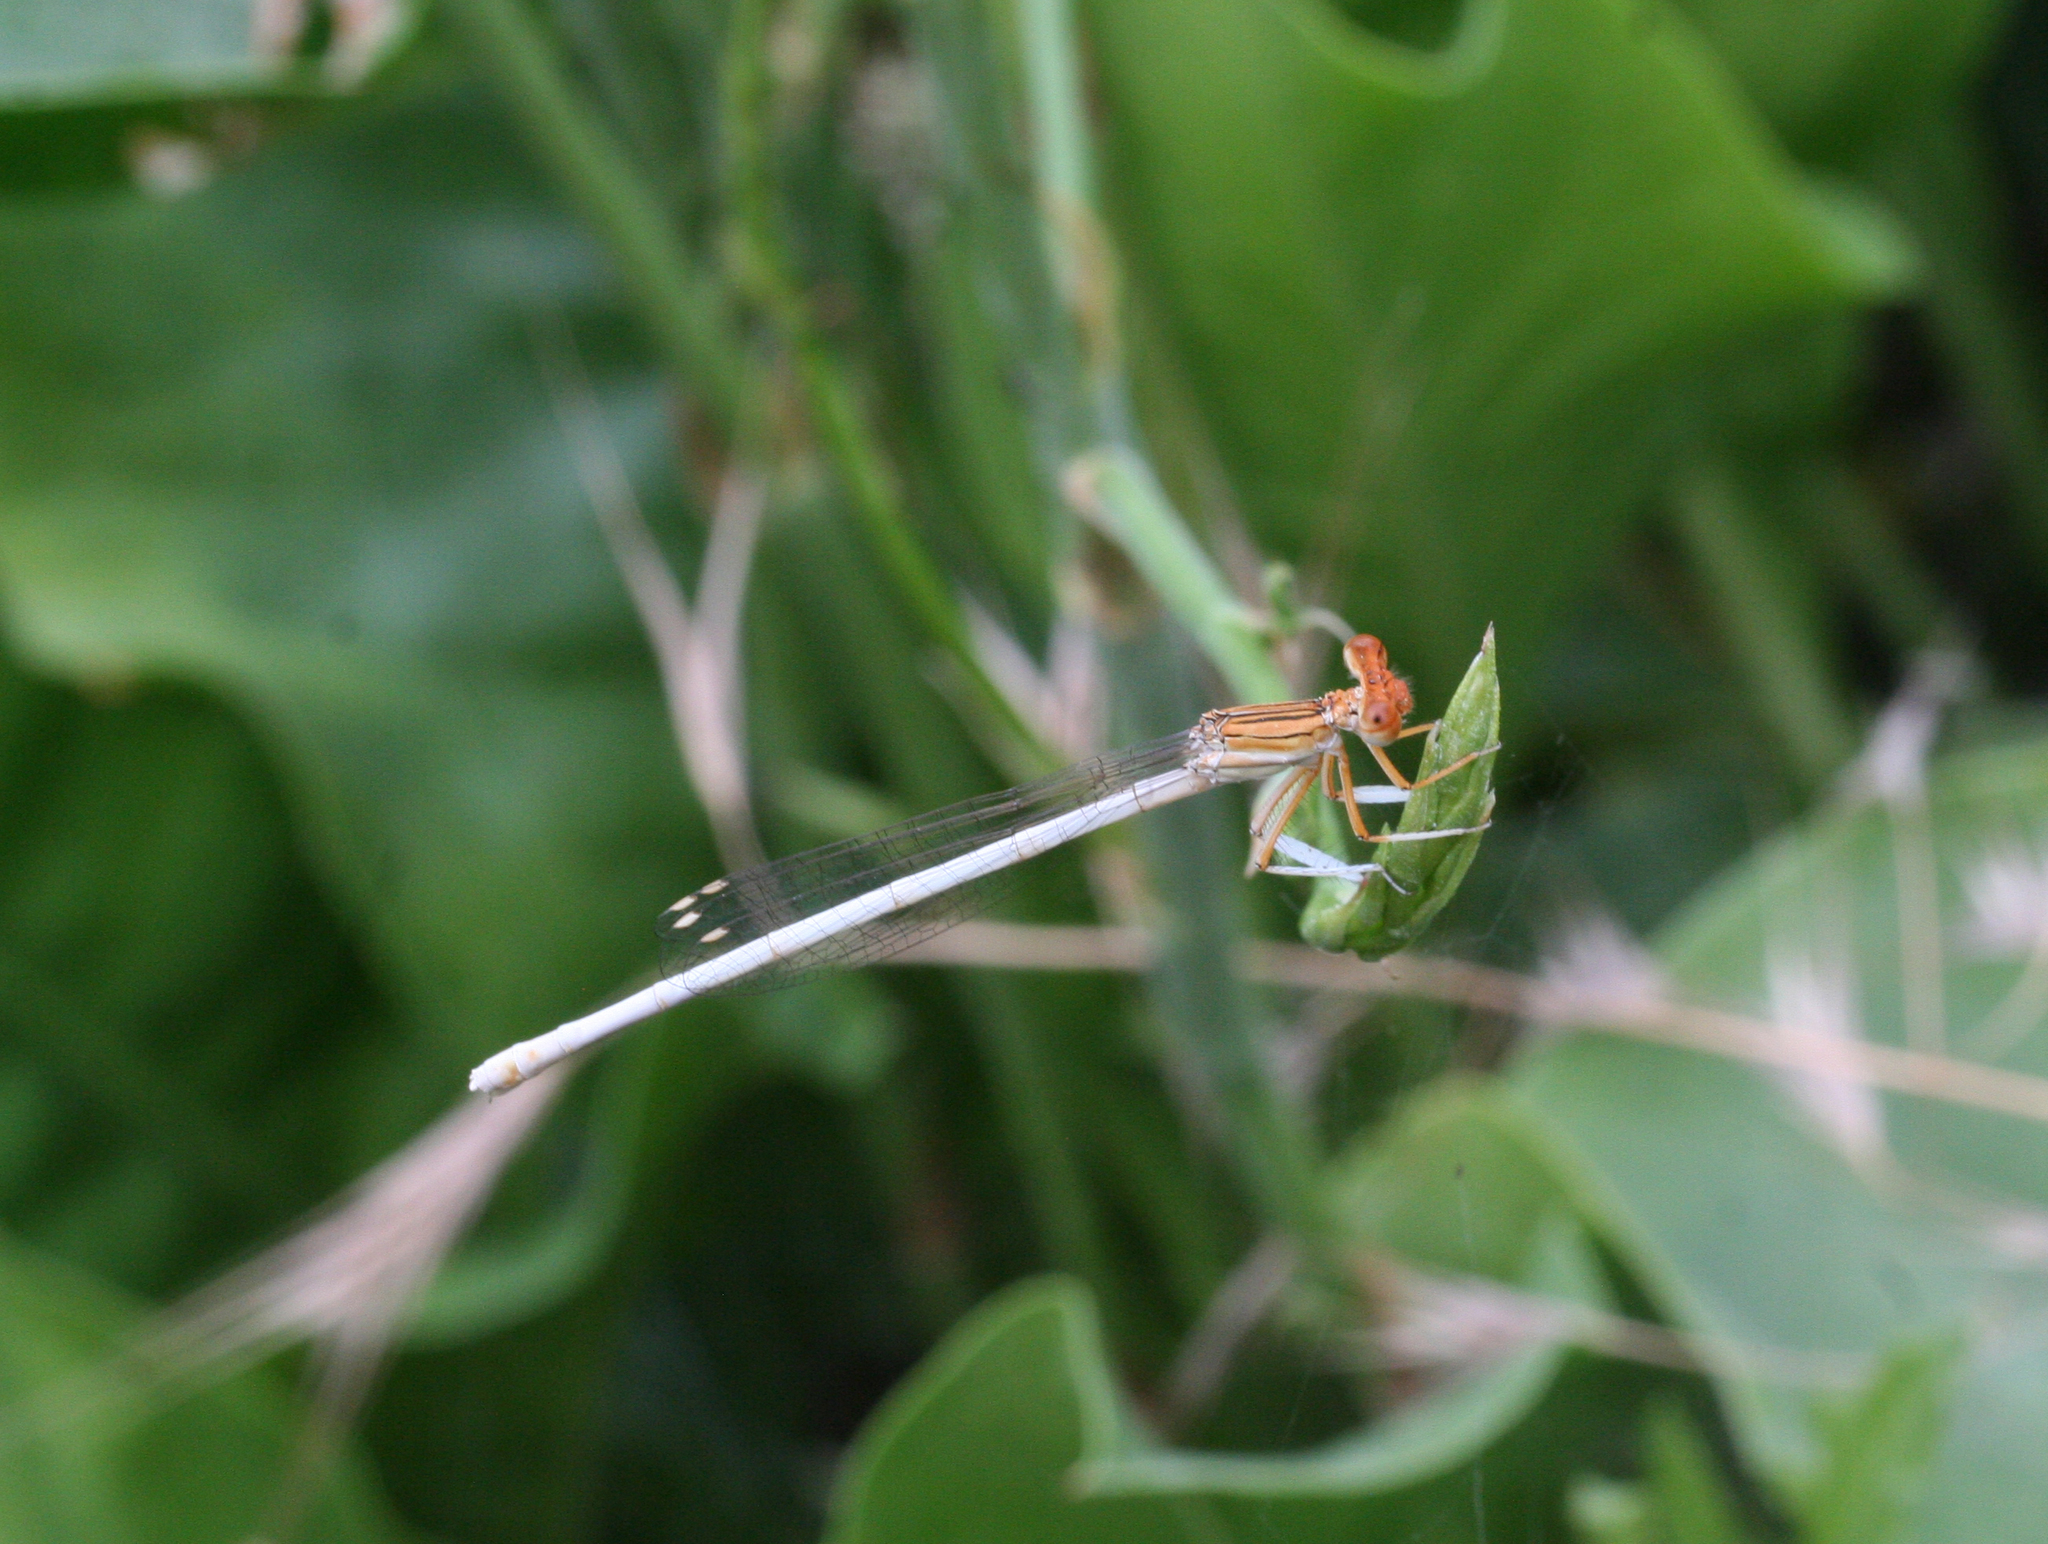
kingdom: Animalia
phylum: Arthropoda
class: Insecta
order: Odonata
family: Platycnemididae
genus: Platycnemis
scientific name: Platycnemis dealbata
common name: Ivory featherleg
